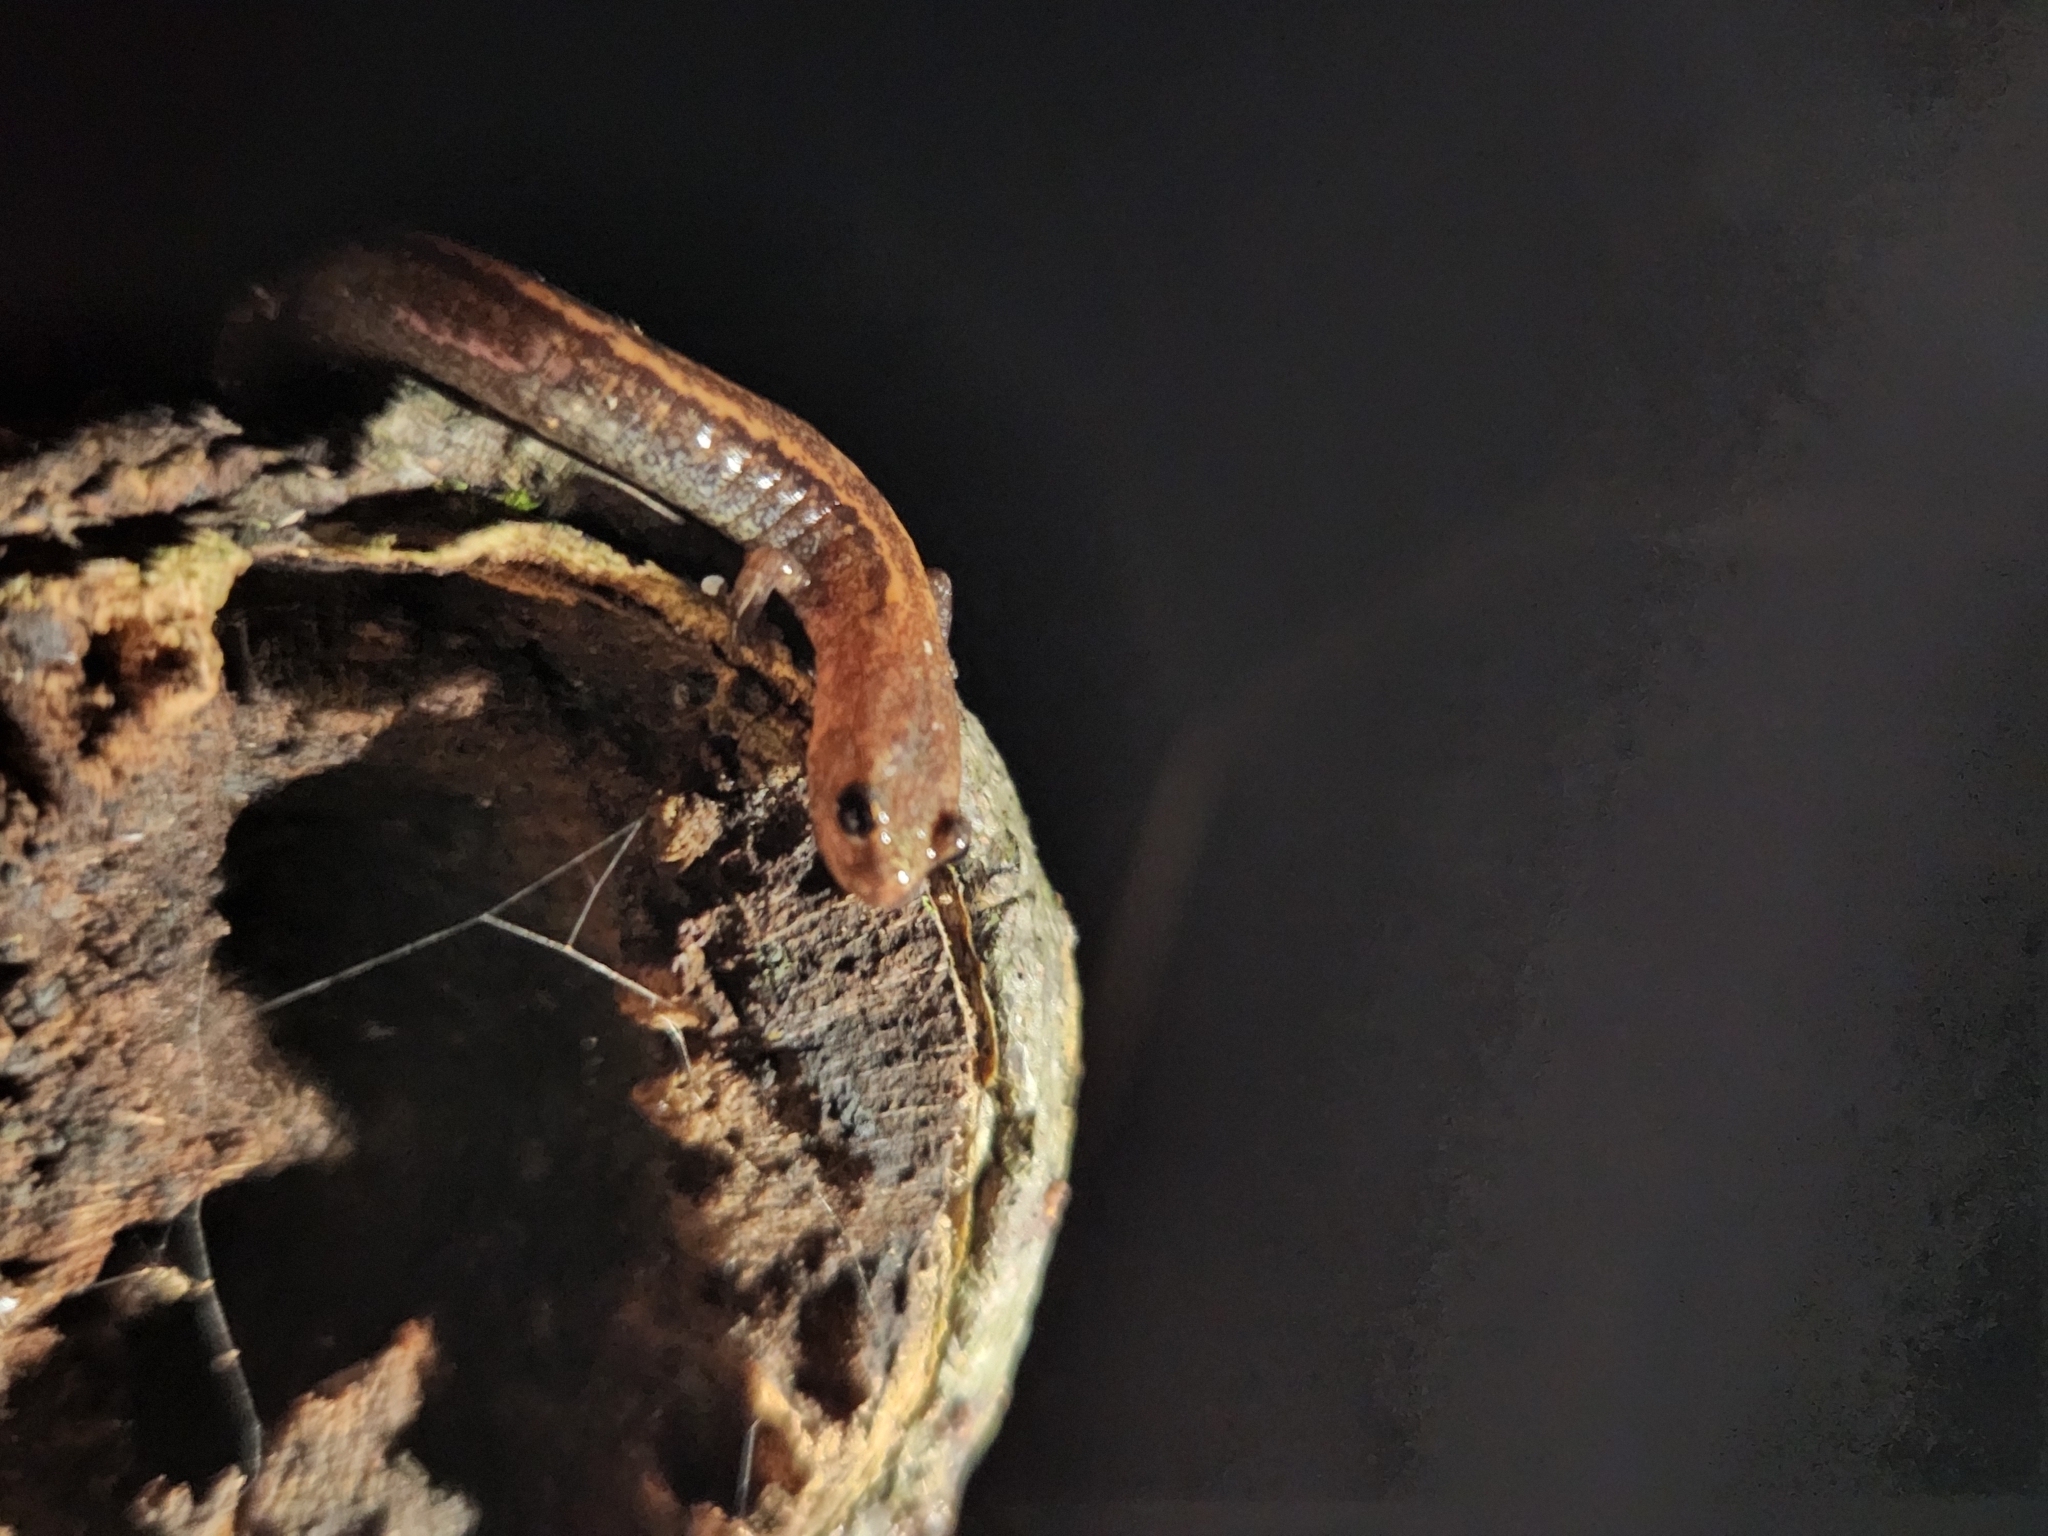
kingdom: Animalia
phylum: Chordata
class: Amphibia
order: Caudata
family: Plethodontidae
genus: Plethodon
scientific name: Plethodon cinereus
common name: Redback salamander
